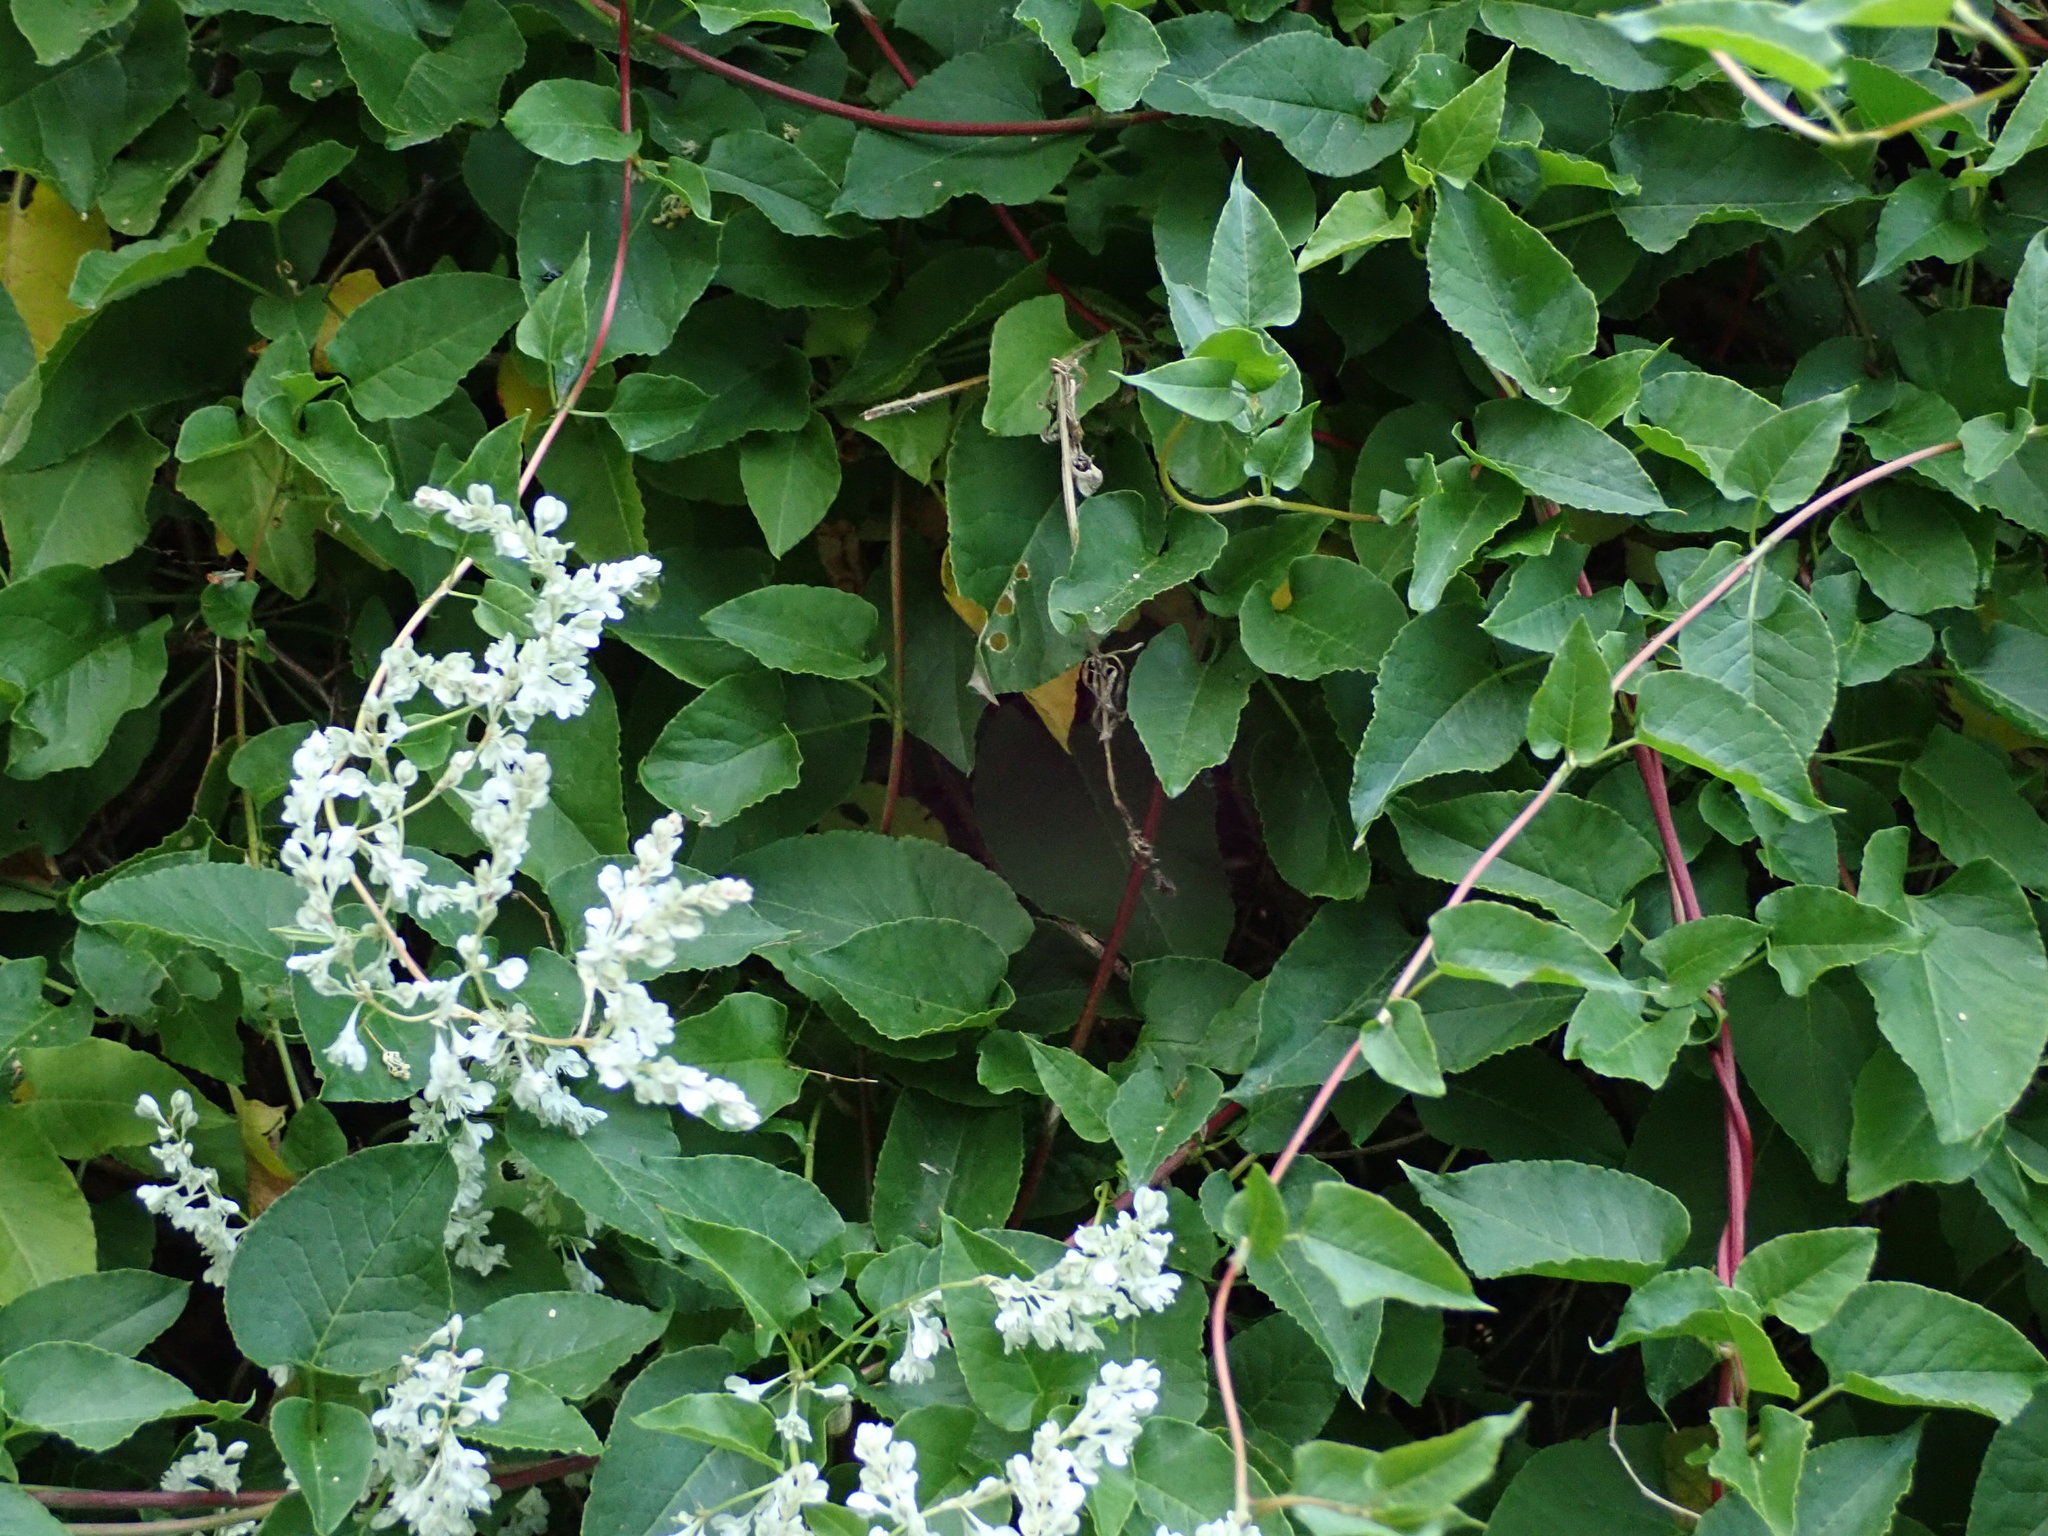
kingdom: Plantae
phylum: Tracheophyta
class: Magnoliopsida
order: Caryophyllales
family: Polygonaceae
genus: Fallopia
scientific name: Fallopia baldschuanica
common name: Russian-vine
